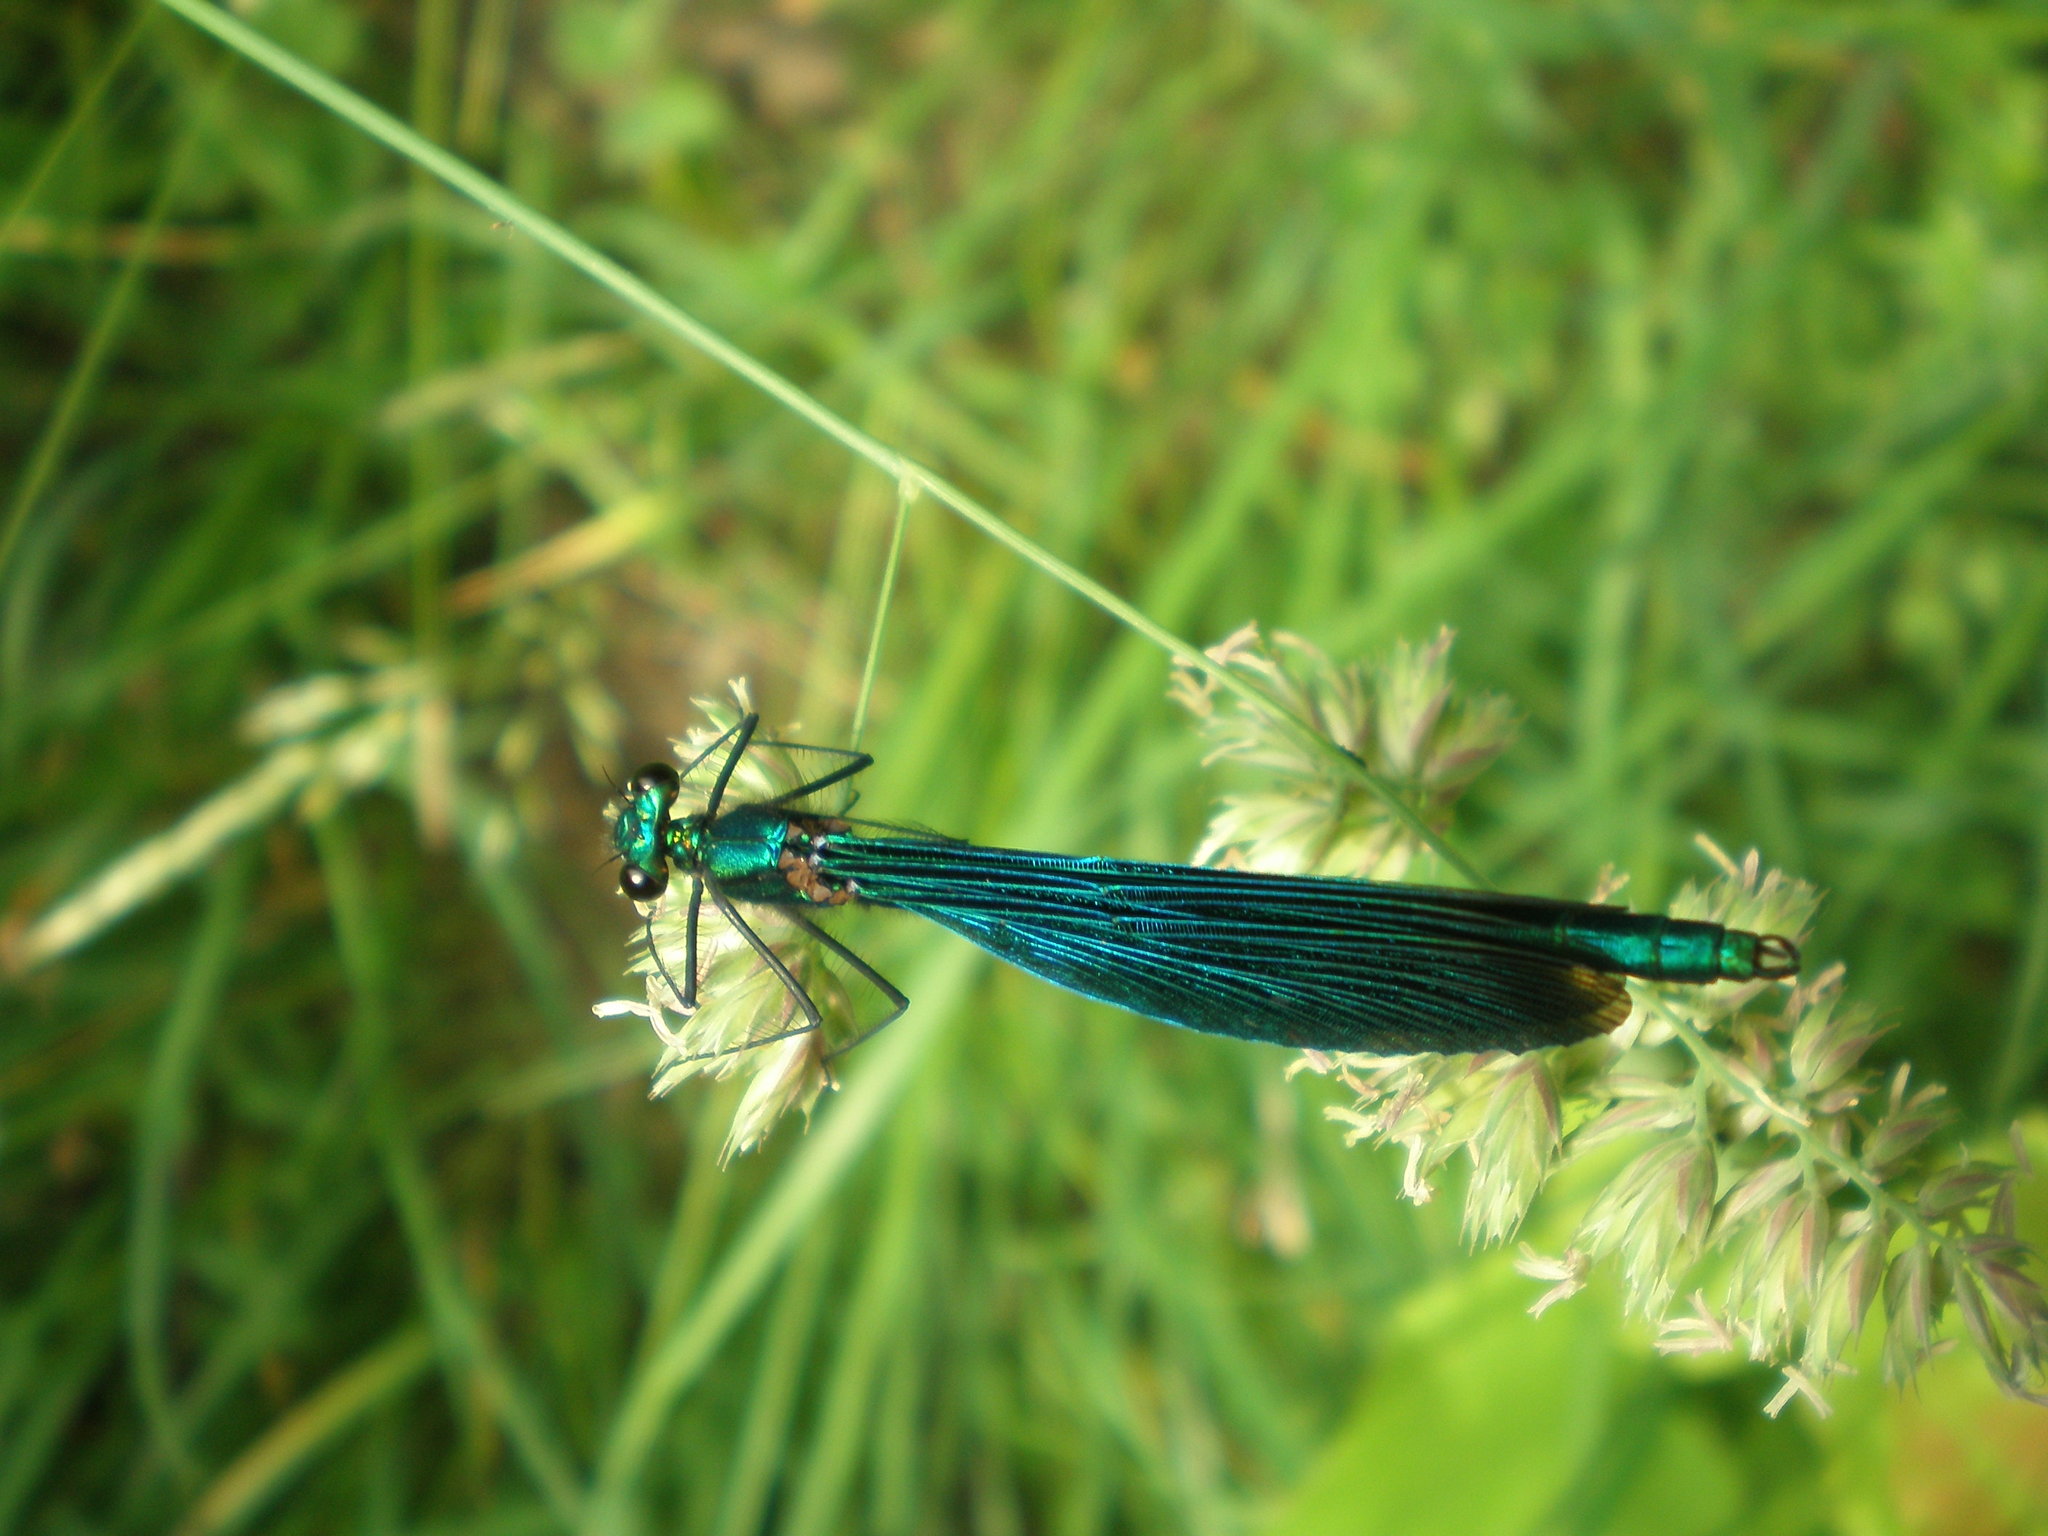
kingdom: Animalia
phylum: Arthropoda
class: Insecta
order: Odonata
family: Calopterygidae
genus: Calopteryx
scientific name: Calopteryx virgo
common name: Beautiful demoiselle
